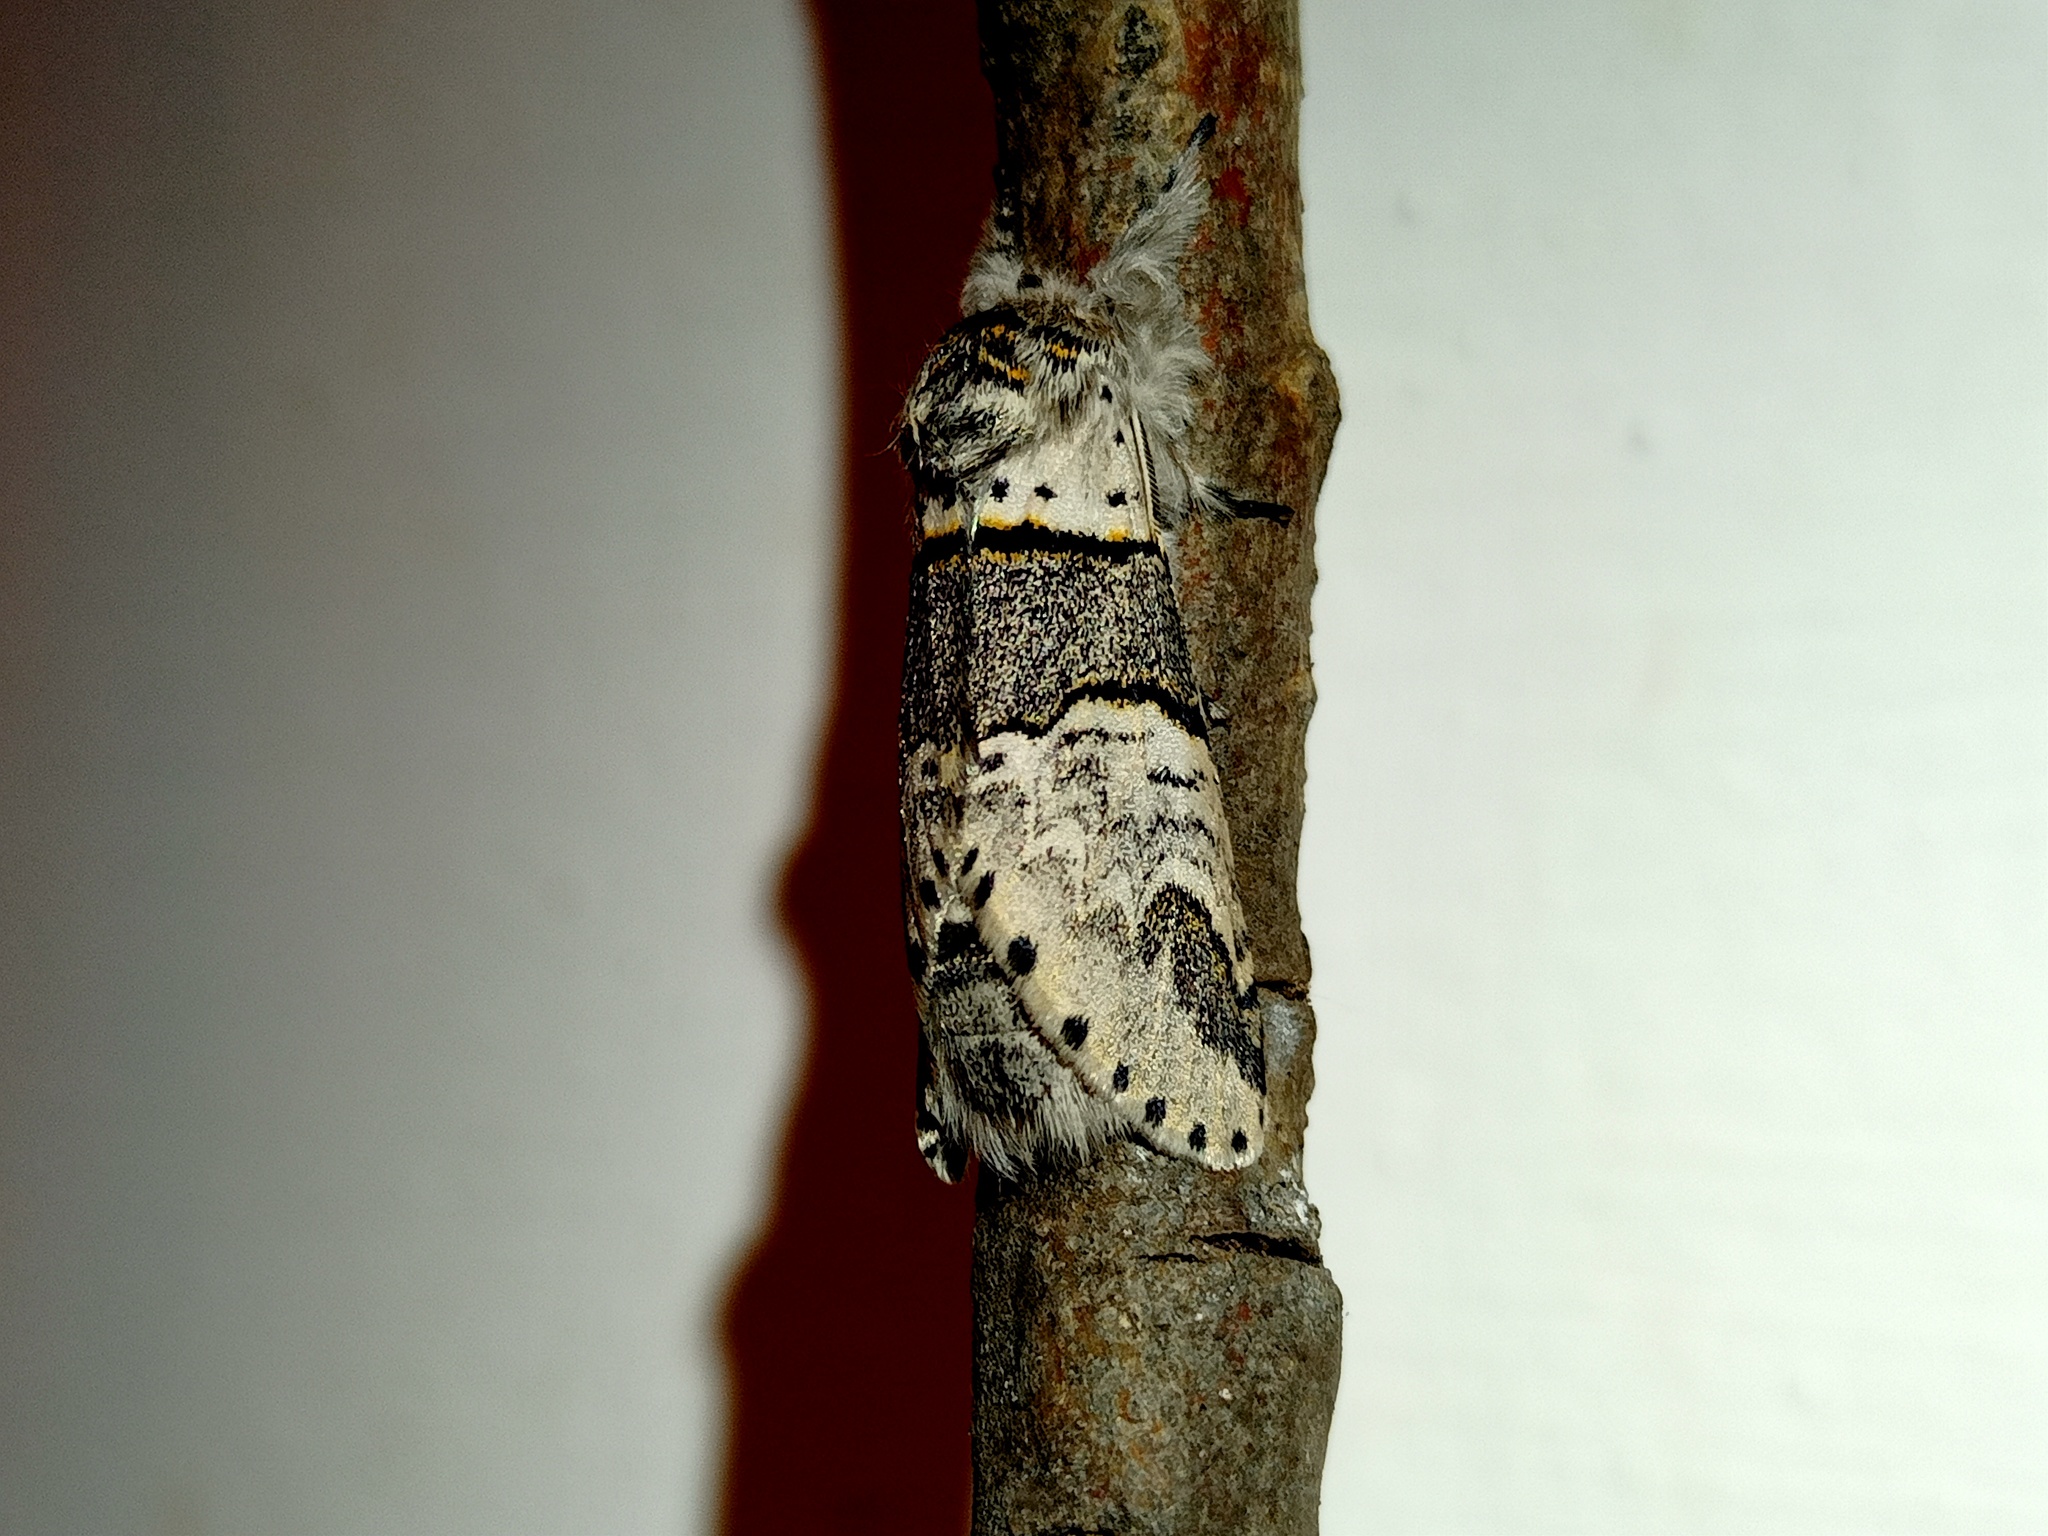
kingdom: Animalia
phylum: Arthropoda
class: Insecta
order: Lepidoptera
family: Notodontidae
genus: Furcula
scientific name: Furcula bifida
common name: Poplar kitten
